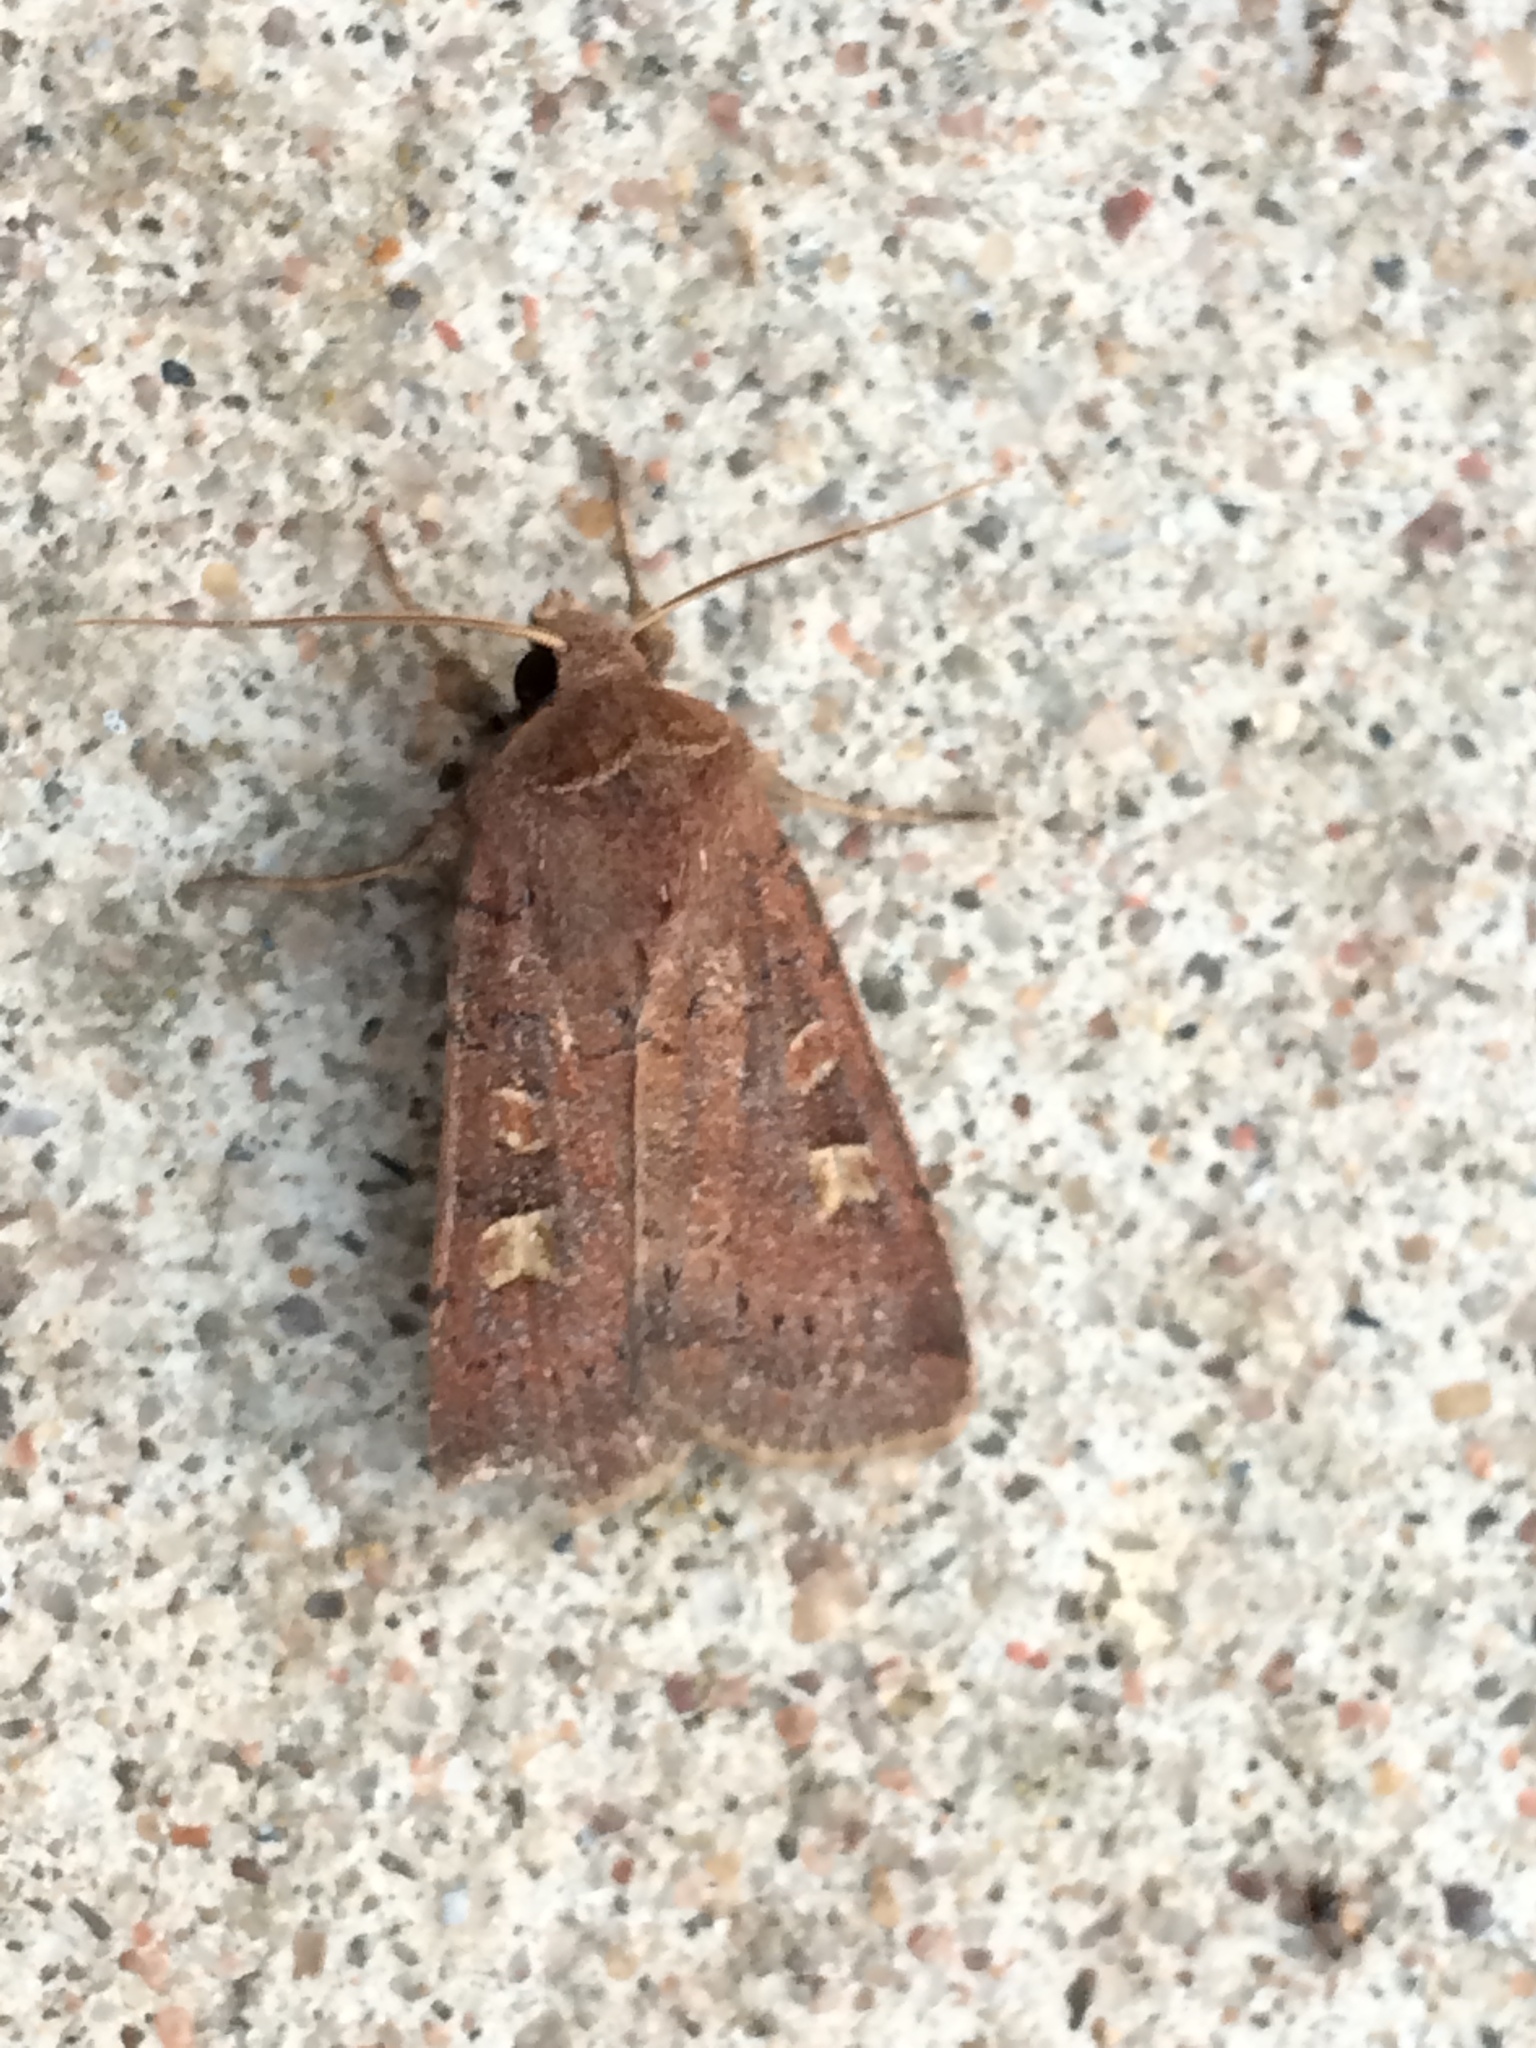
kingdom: Animalia
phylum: Arthropoda
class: Insecta
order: Lepidoptera
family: Noctuidae
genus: Xestia
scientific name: Xestia xanthographa
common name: Square-spot rustic
